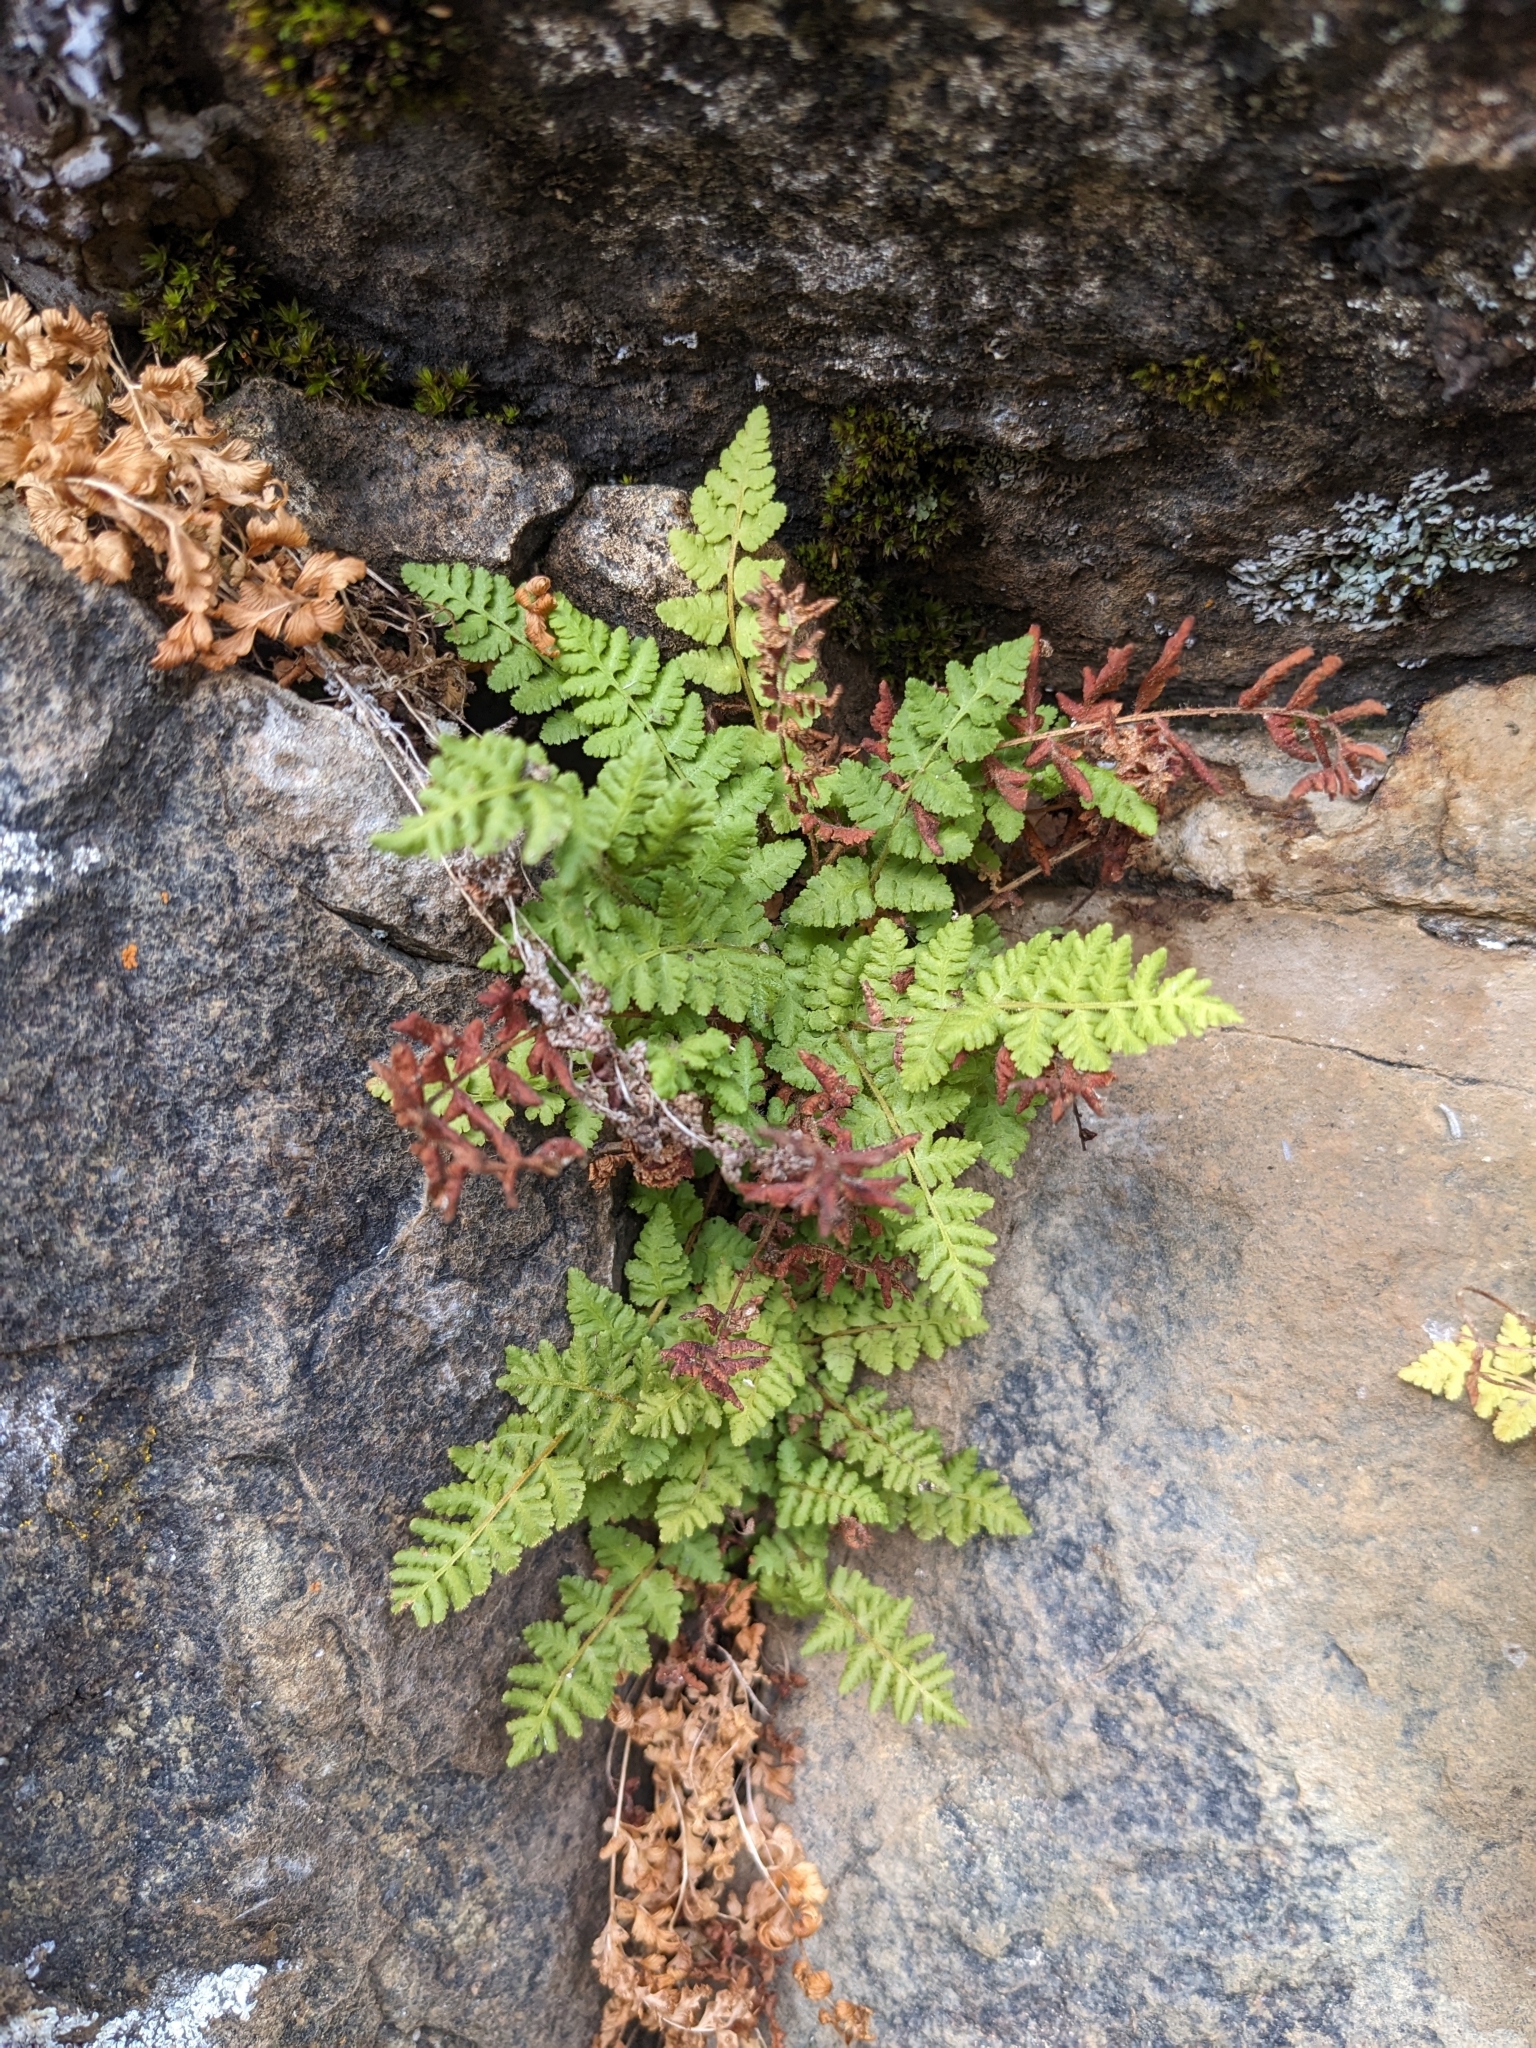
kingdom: Plantae
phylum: Tracheophyta
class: Polypodiopsida
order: Polypodiales
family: Woodsiaceae
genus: Physematium
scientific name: Physematium scopulinum
